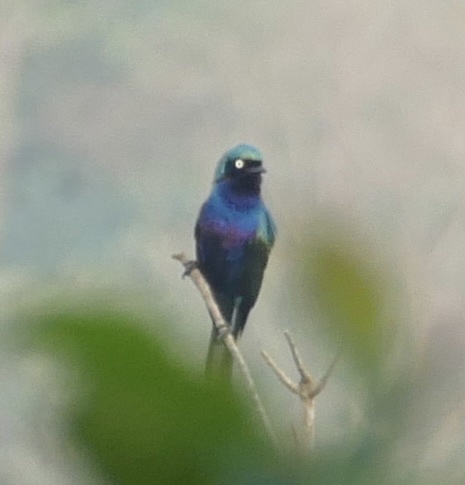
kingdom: Animalia
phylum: Chordata
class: Aves
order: Passeriformes
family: Sturnidae
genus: Lamprotornis
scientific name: Lamprotornis splendidus
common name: Splendid starling
